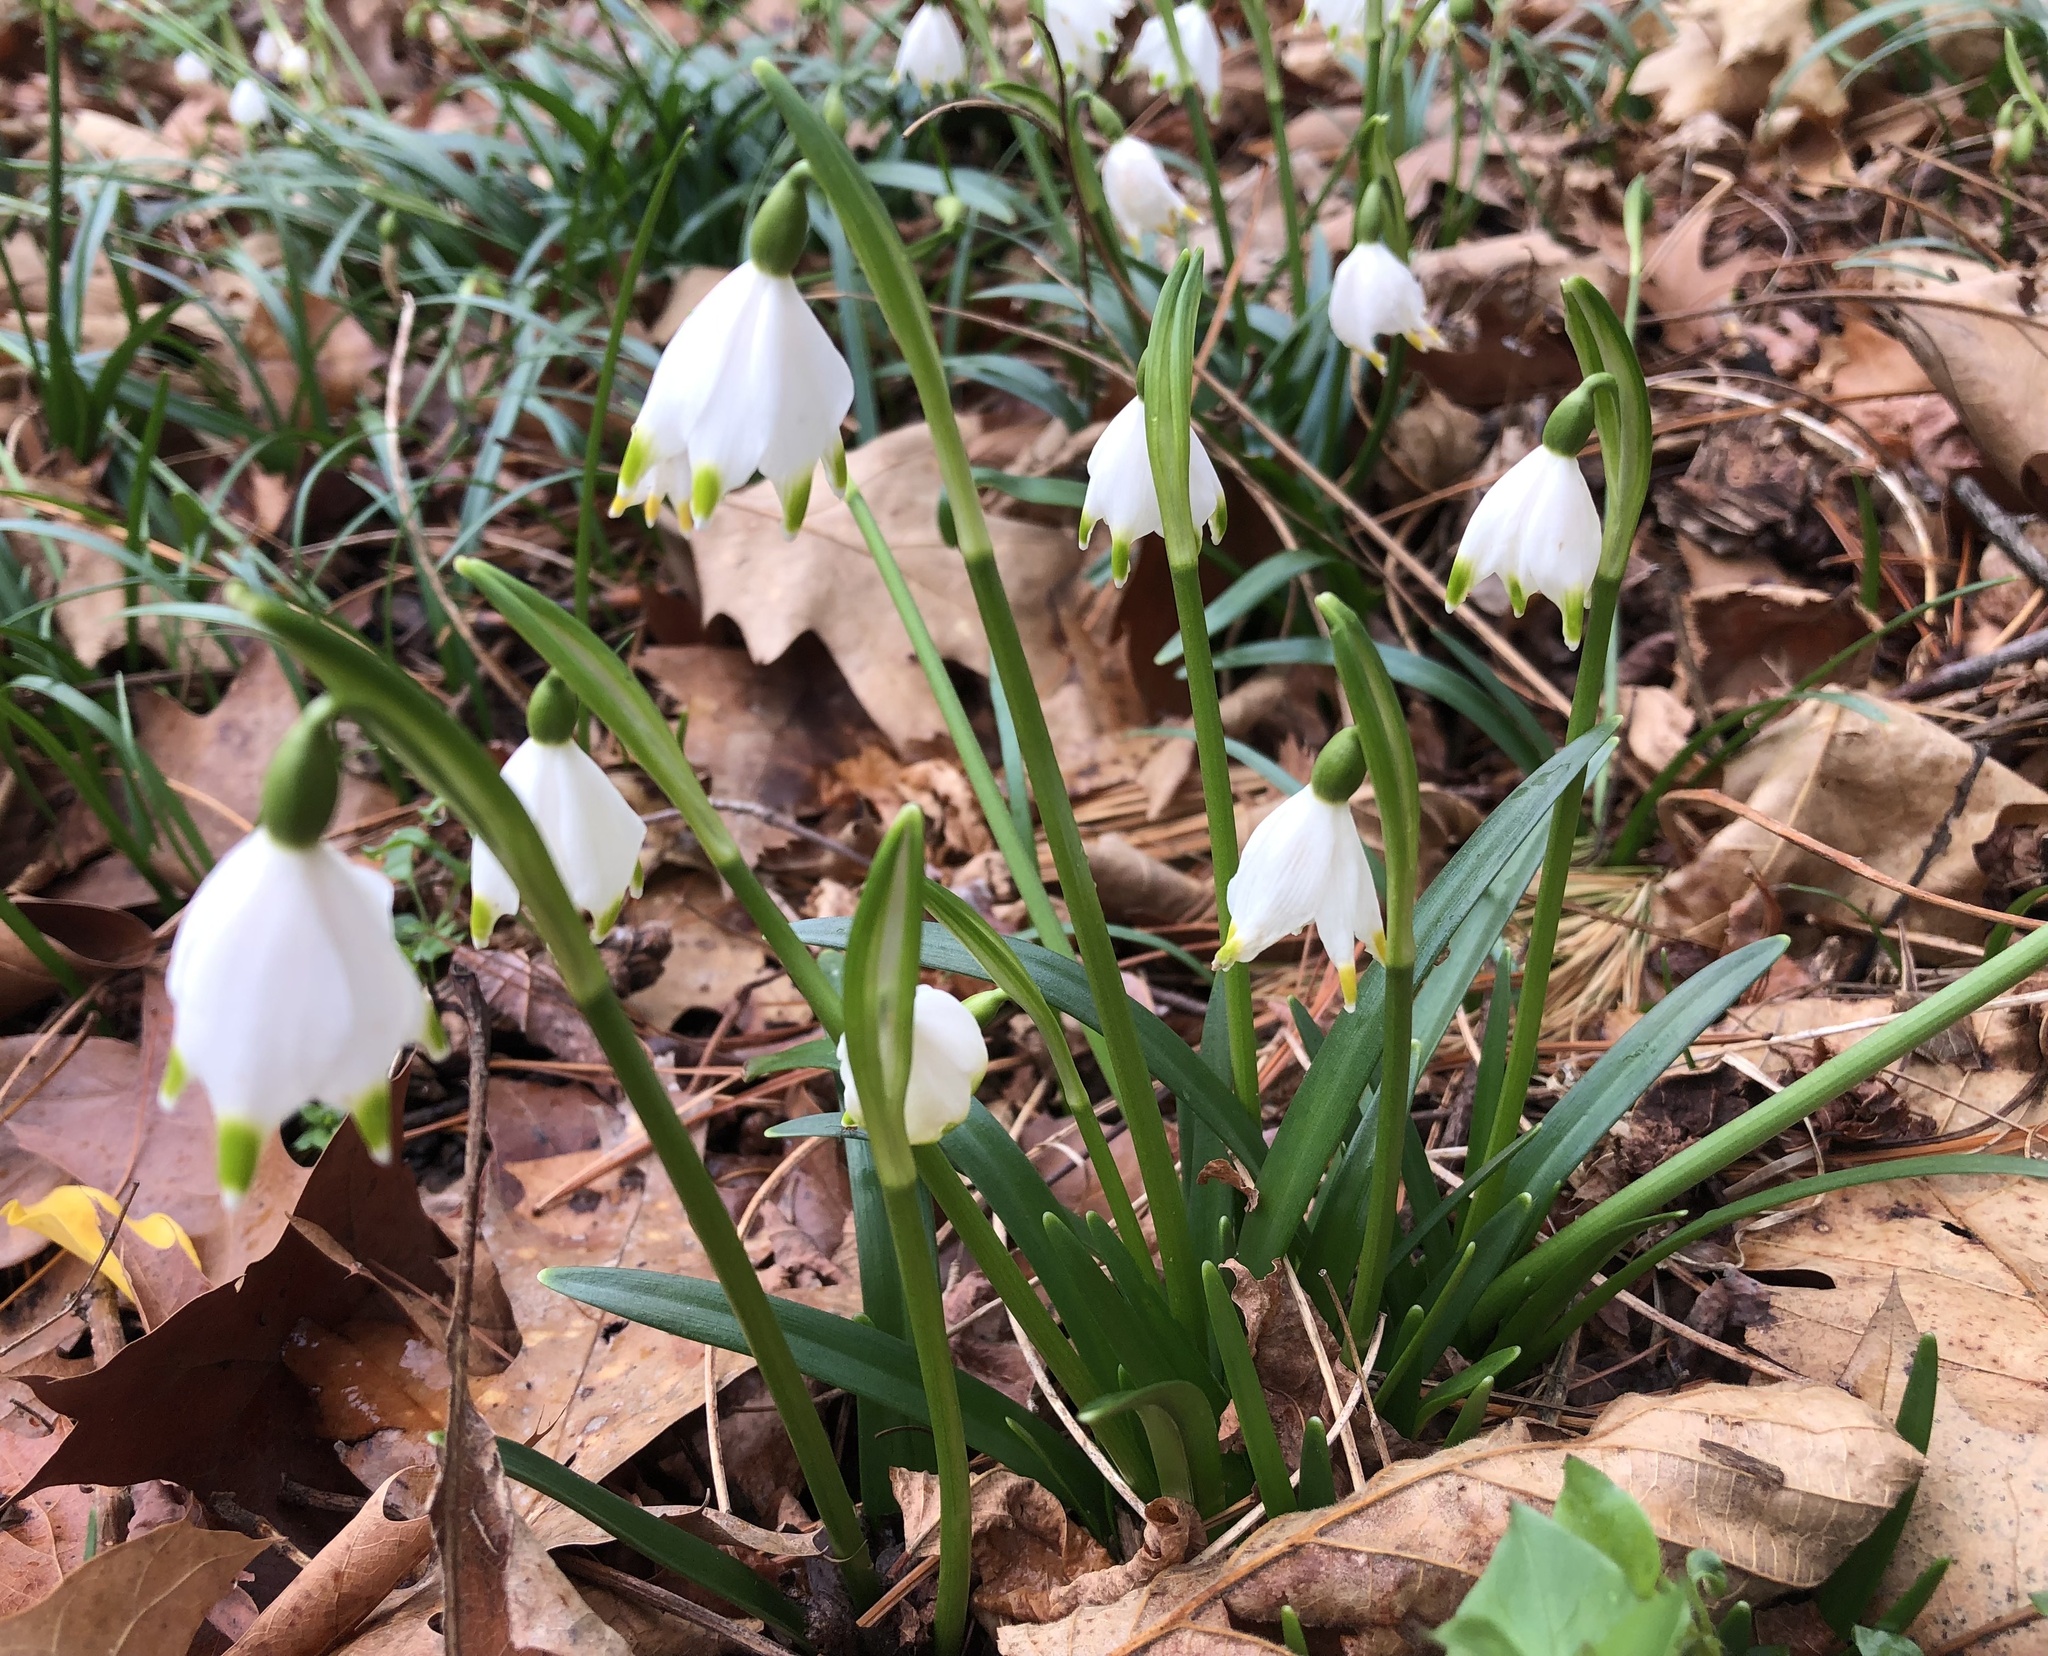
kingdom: Plantae
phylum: Tracheophyta
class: Liliopsida
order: Asparagales
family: Amaryllidaceae
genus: Leucojum
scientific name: Leucojum vernum
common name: Spring snowflake
